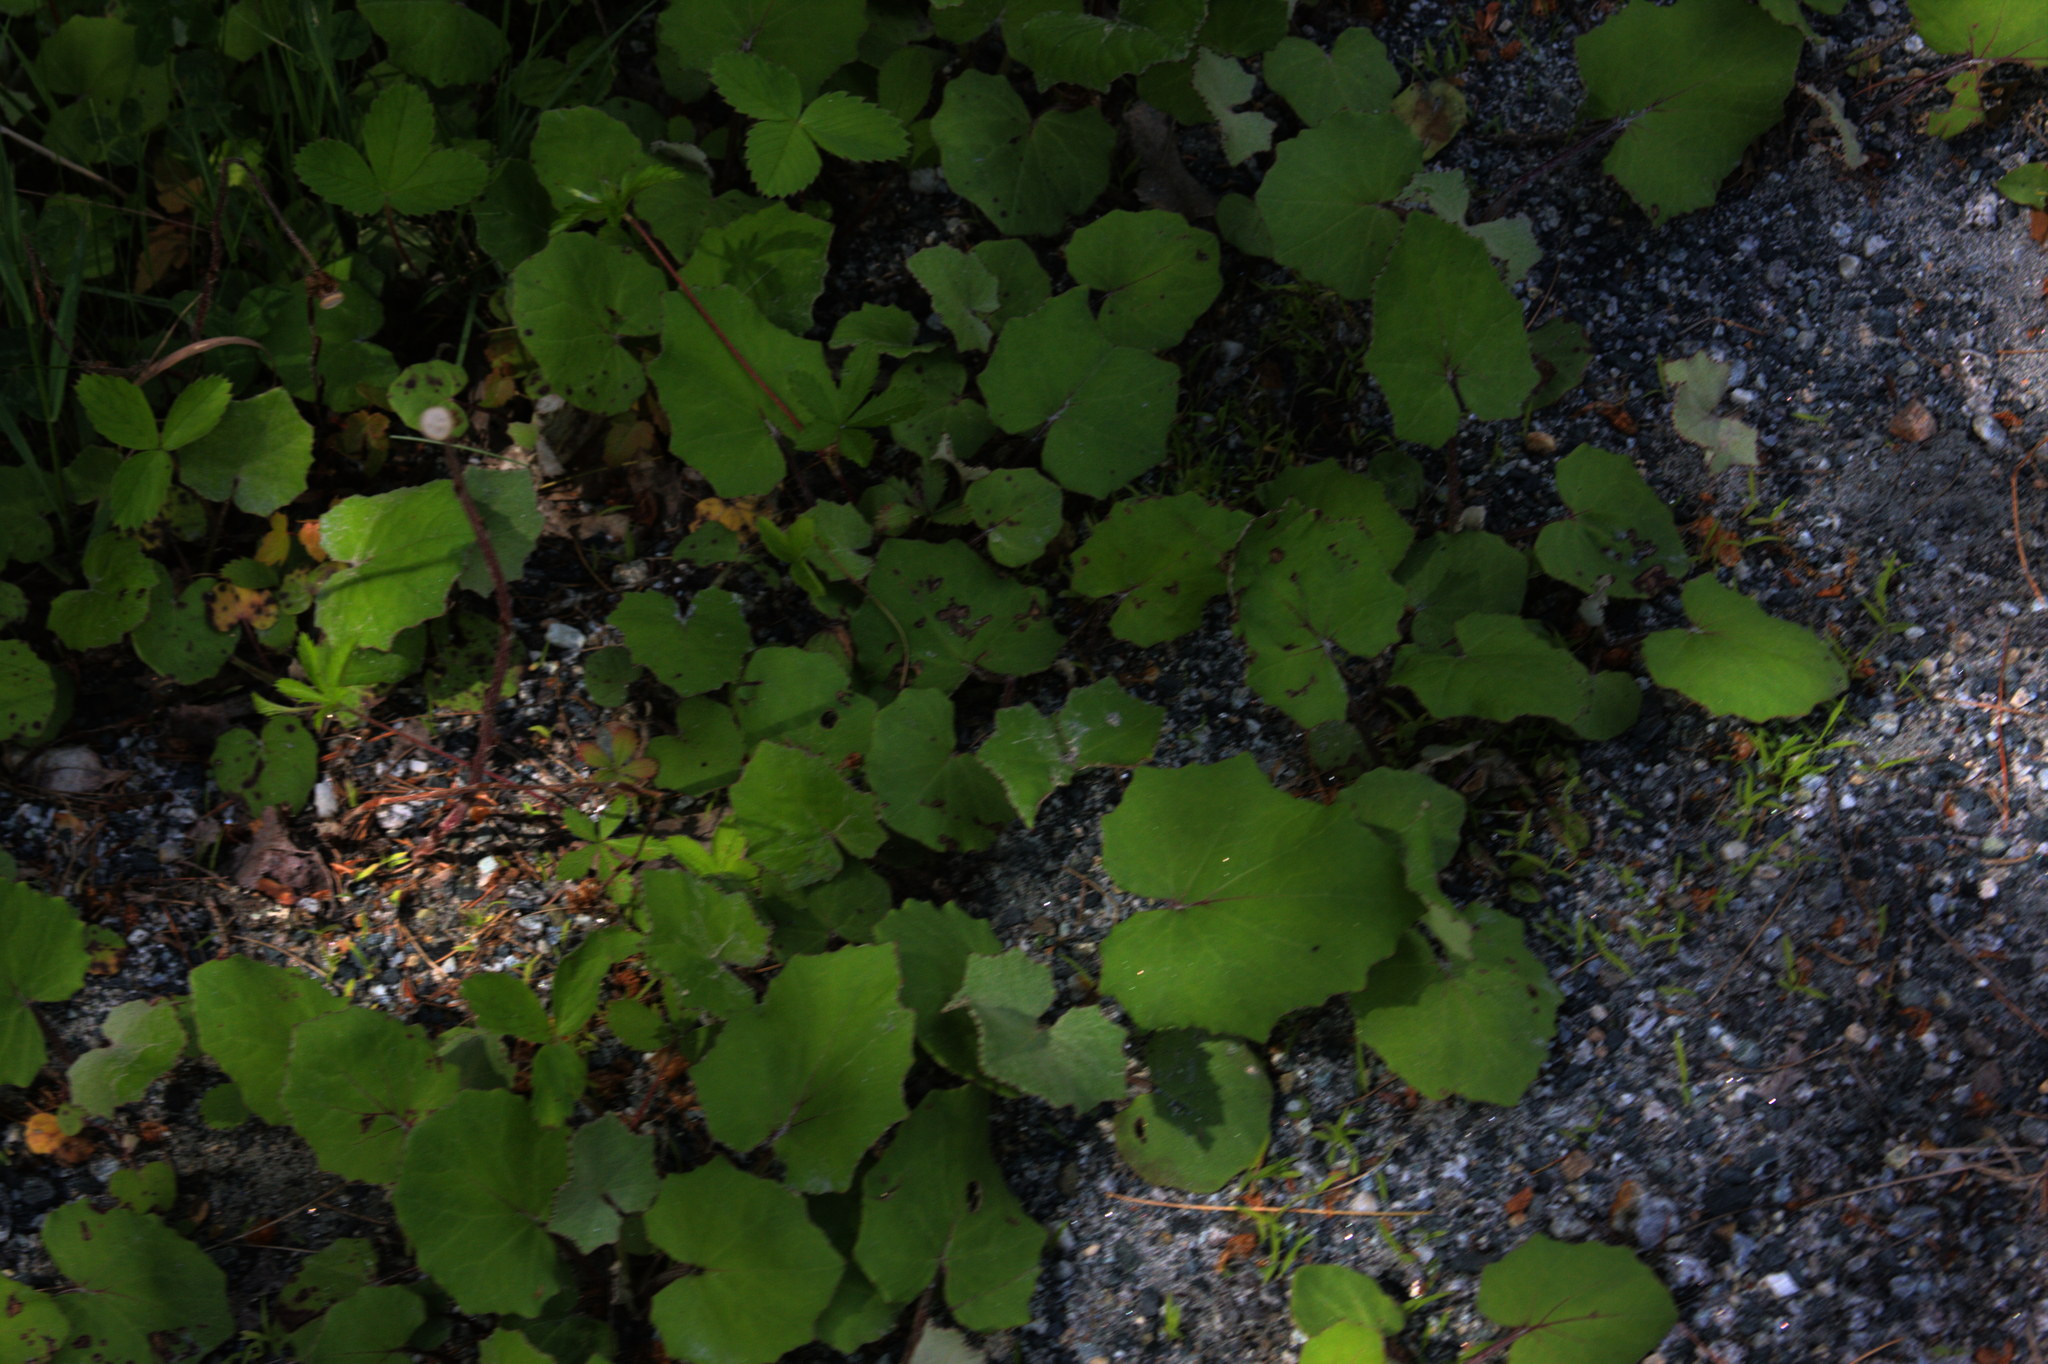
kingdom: Plantae
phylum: Tracheophyta
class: Magnoliopsida
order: Asterales
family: Asteraceae
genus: Tussilago
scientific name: Tussilago farfara
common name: Coltsfoot
